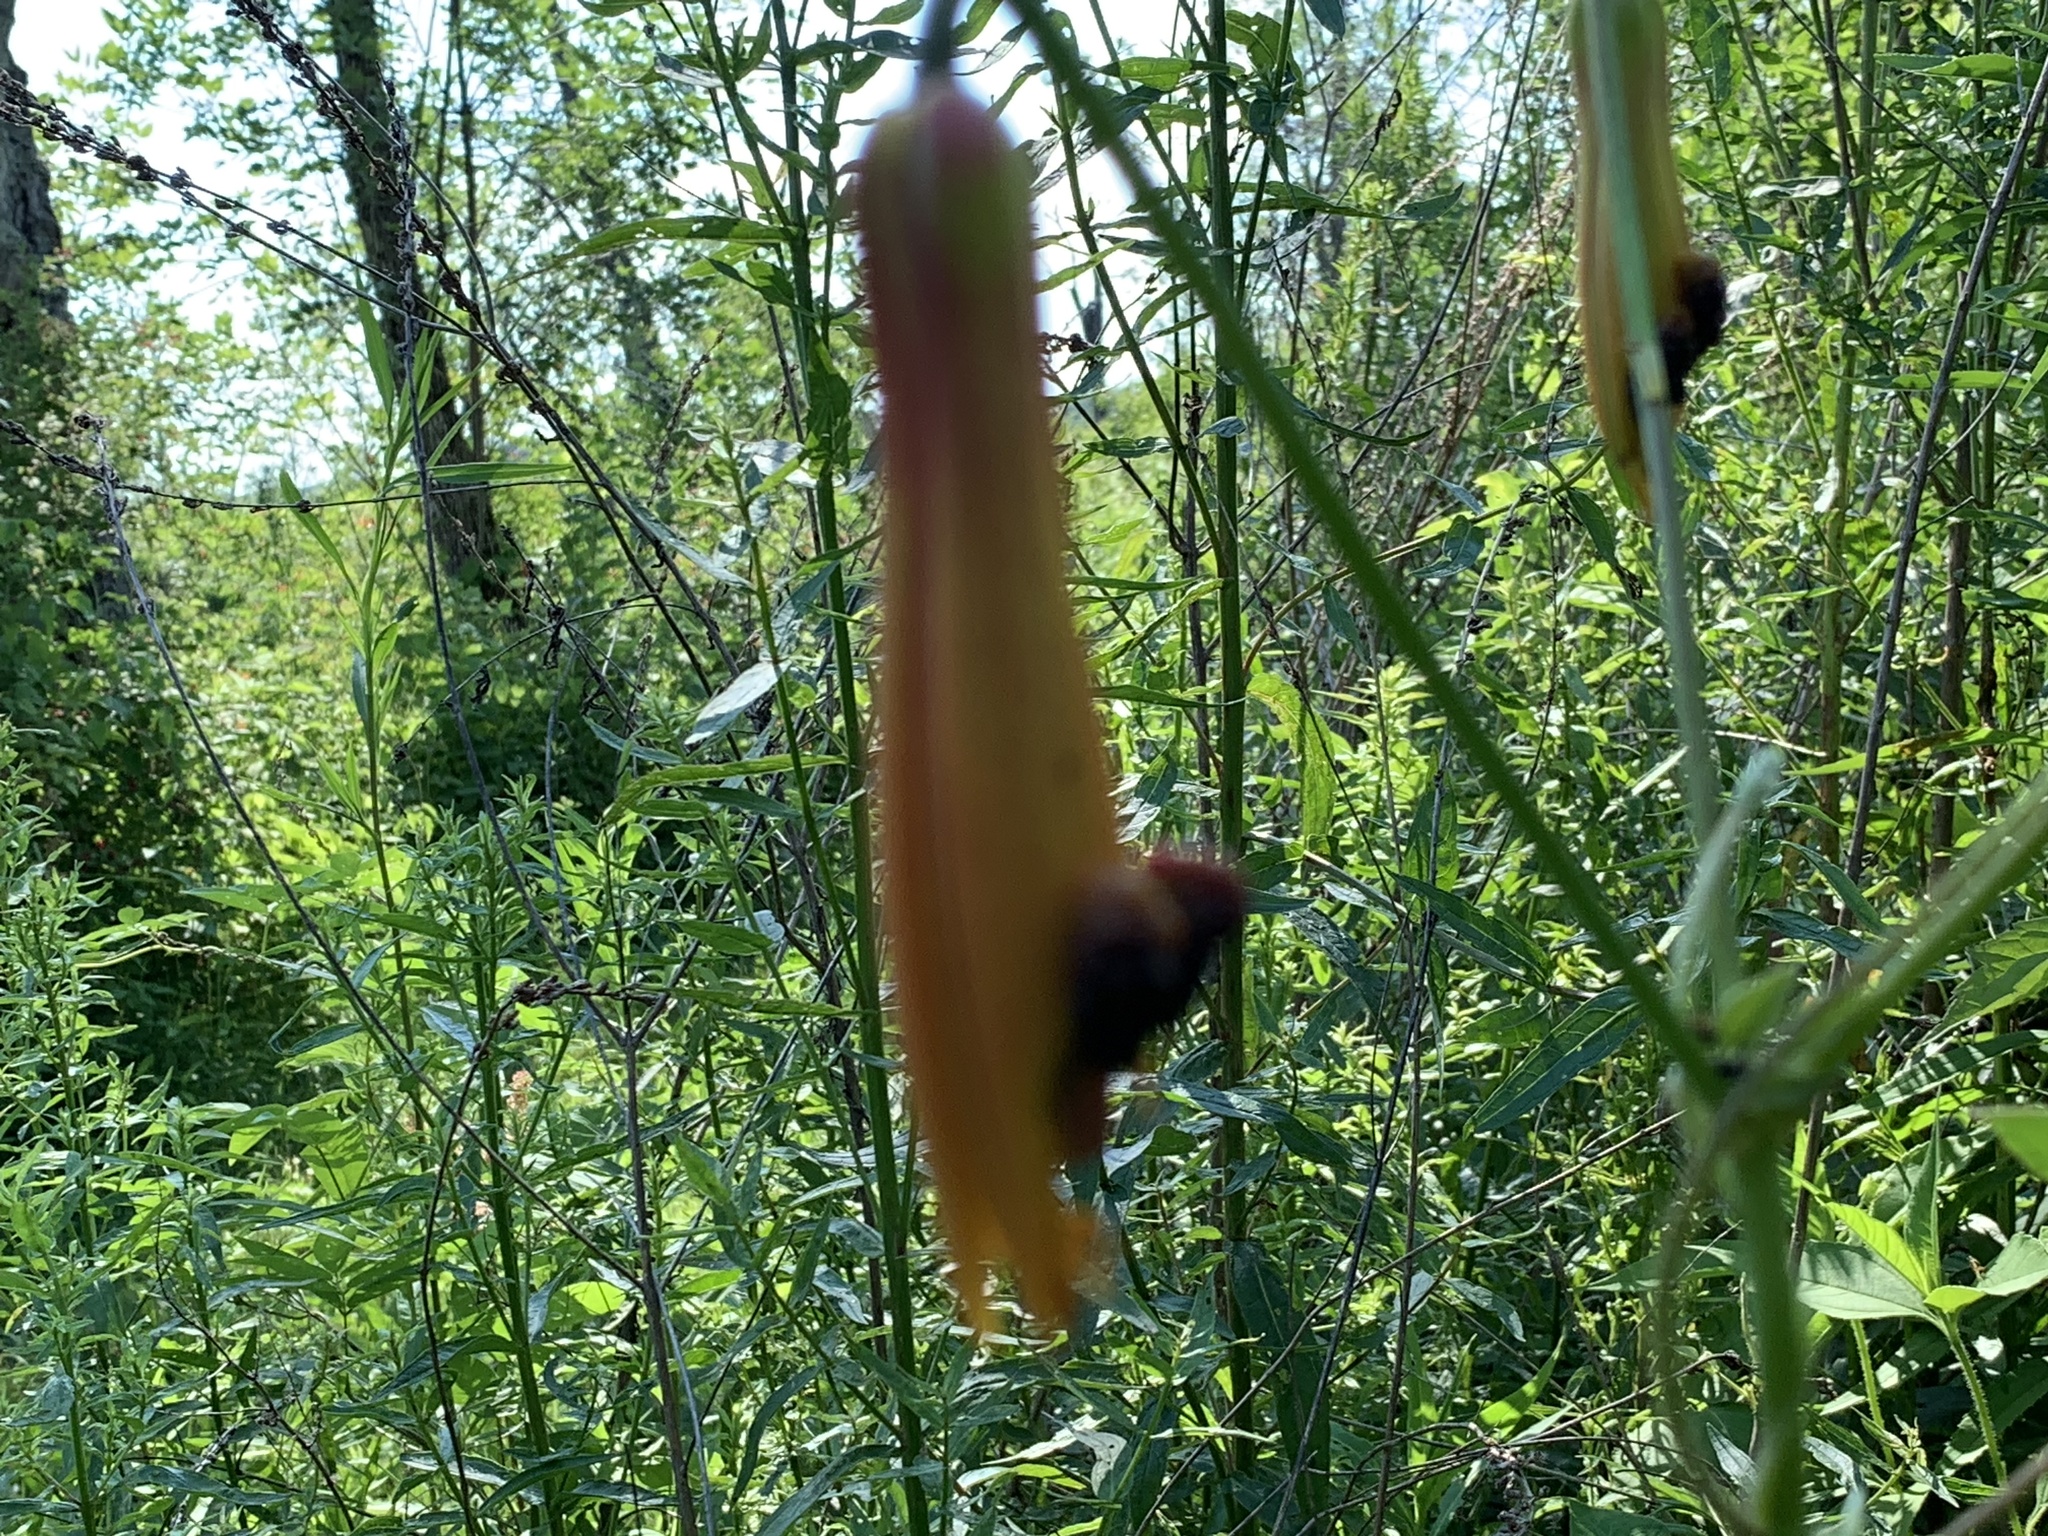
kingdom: Animalia
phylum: Arthropoda
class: Insecta
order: Coleoptera
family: Chrysomelidae
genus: Lilioceris
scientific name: Lilioceris lilii
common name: Lily beetle
